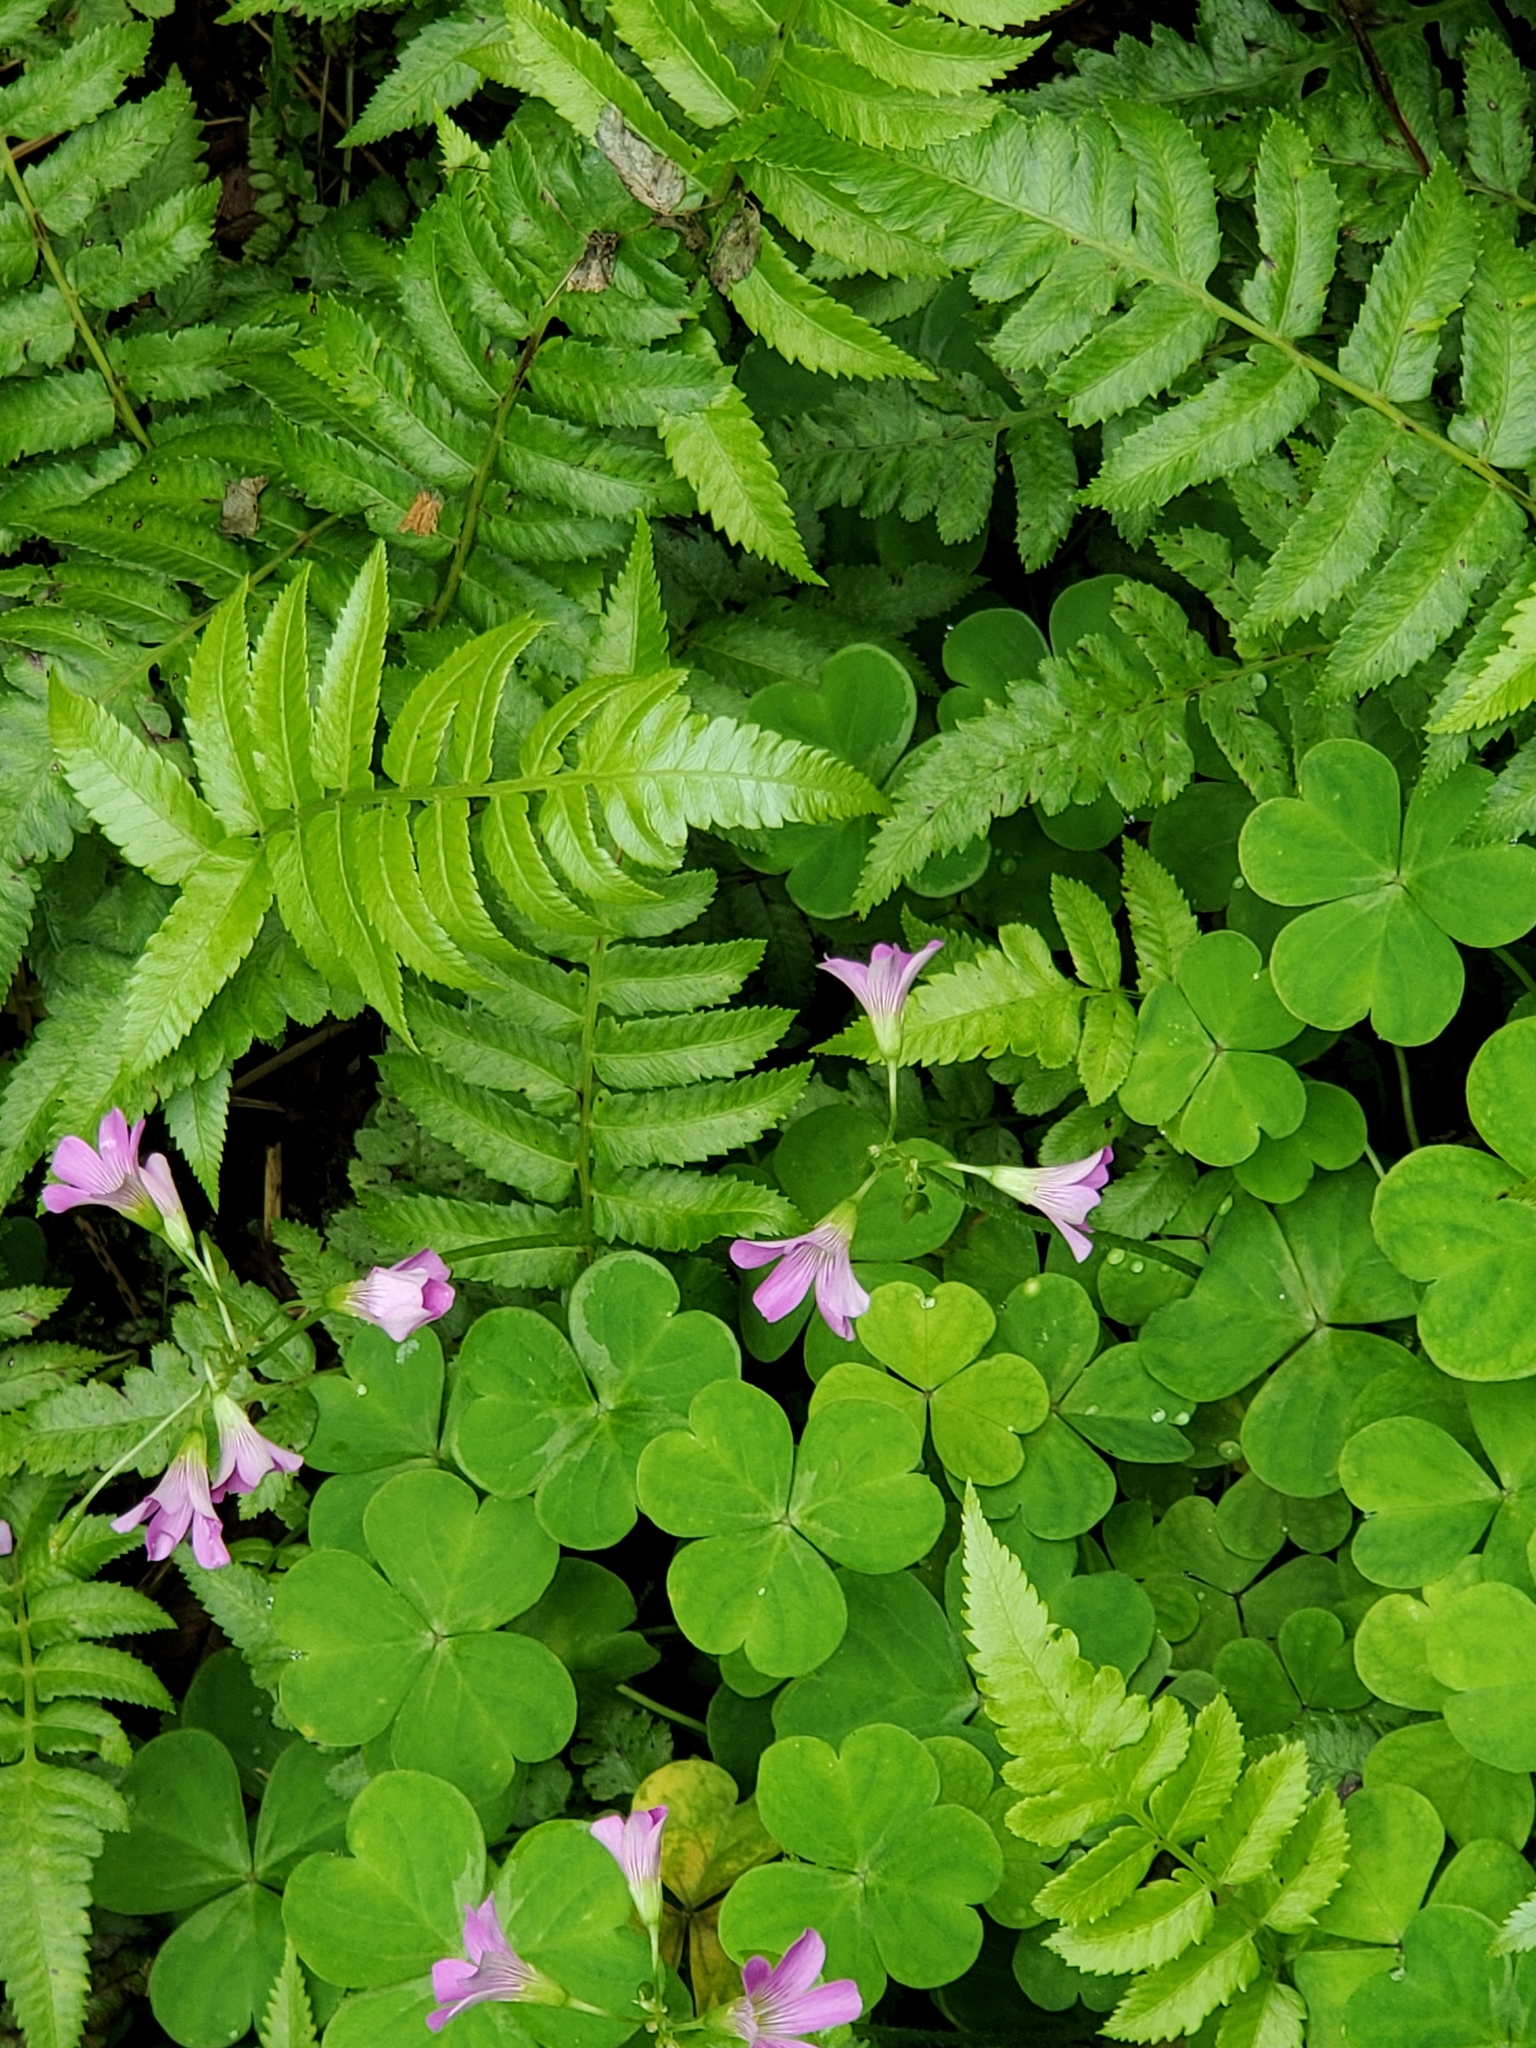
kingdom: Plantae
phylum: Tracheophyta
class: Magnoliopsida
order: Oxalidales
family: Oxalidaceae
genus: Oxalis
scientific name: Oxalis debilis
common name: Large-flowered pink-sorrel
